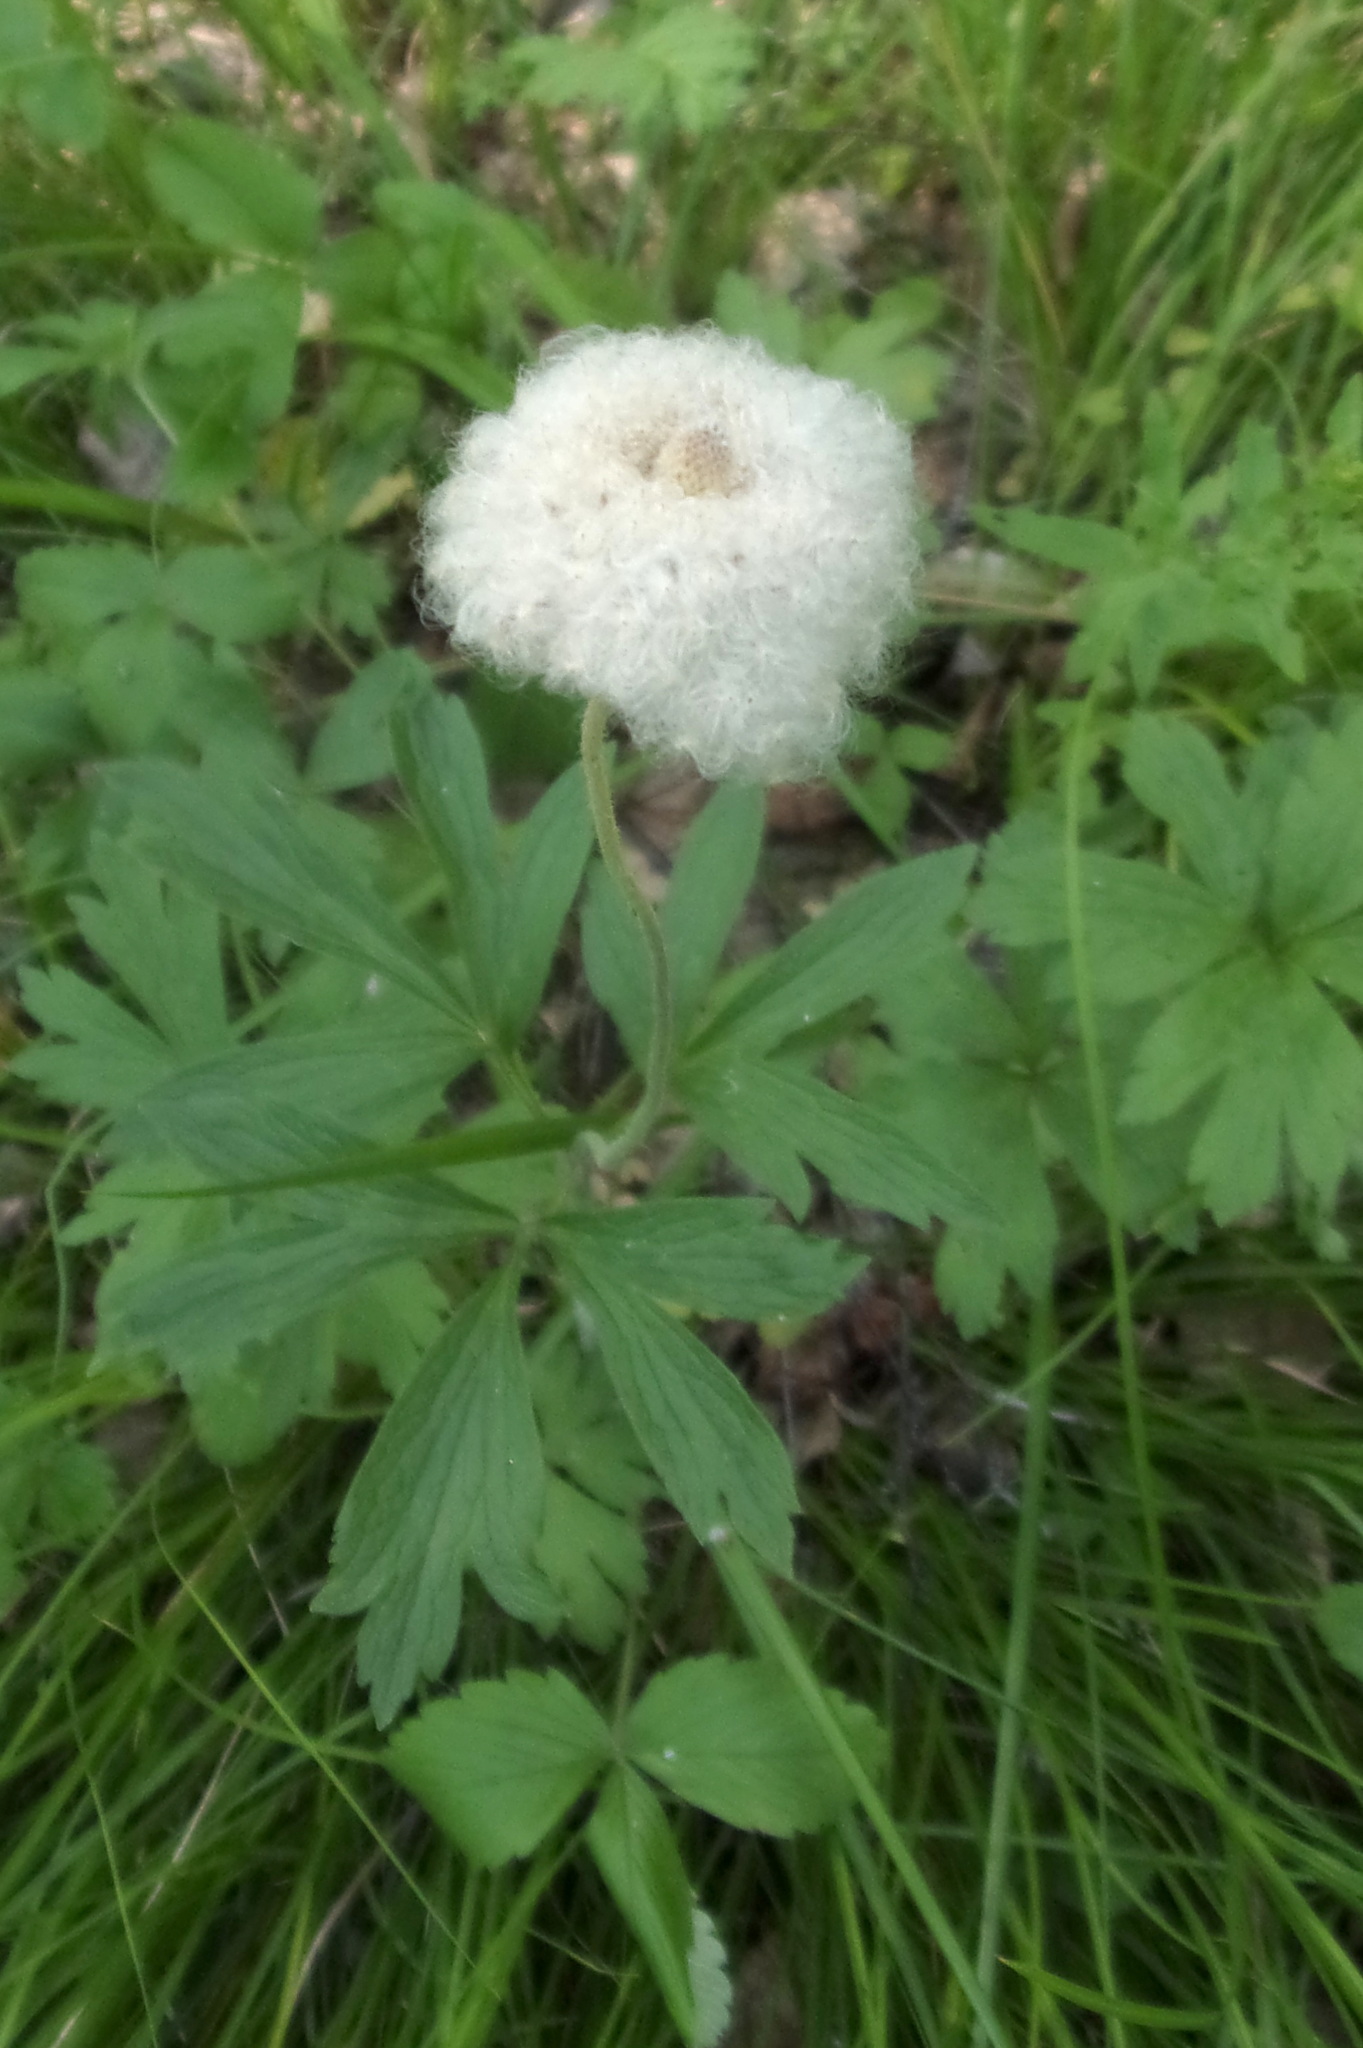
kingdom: Plantae
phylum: Tracheophyta
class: Magnoliopsida
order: Ranunculales
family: Ranunculaceae
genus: Anemone
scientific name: Anemone sylvestris
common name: Snowdrop anemone
